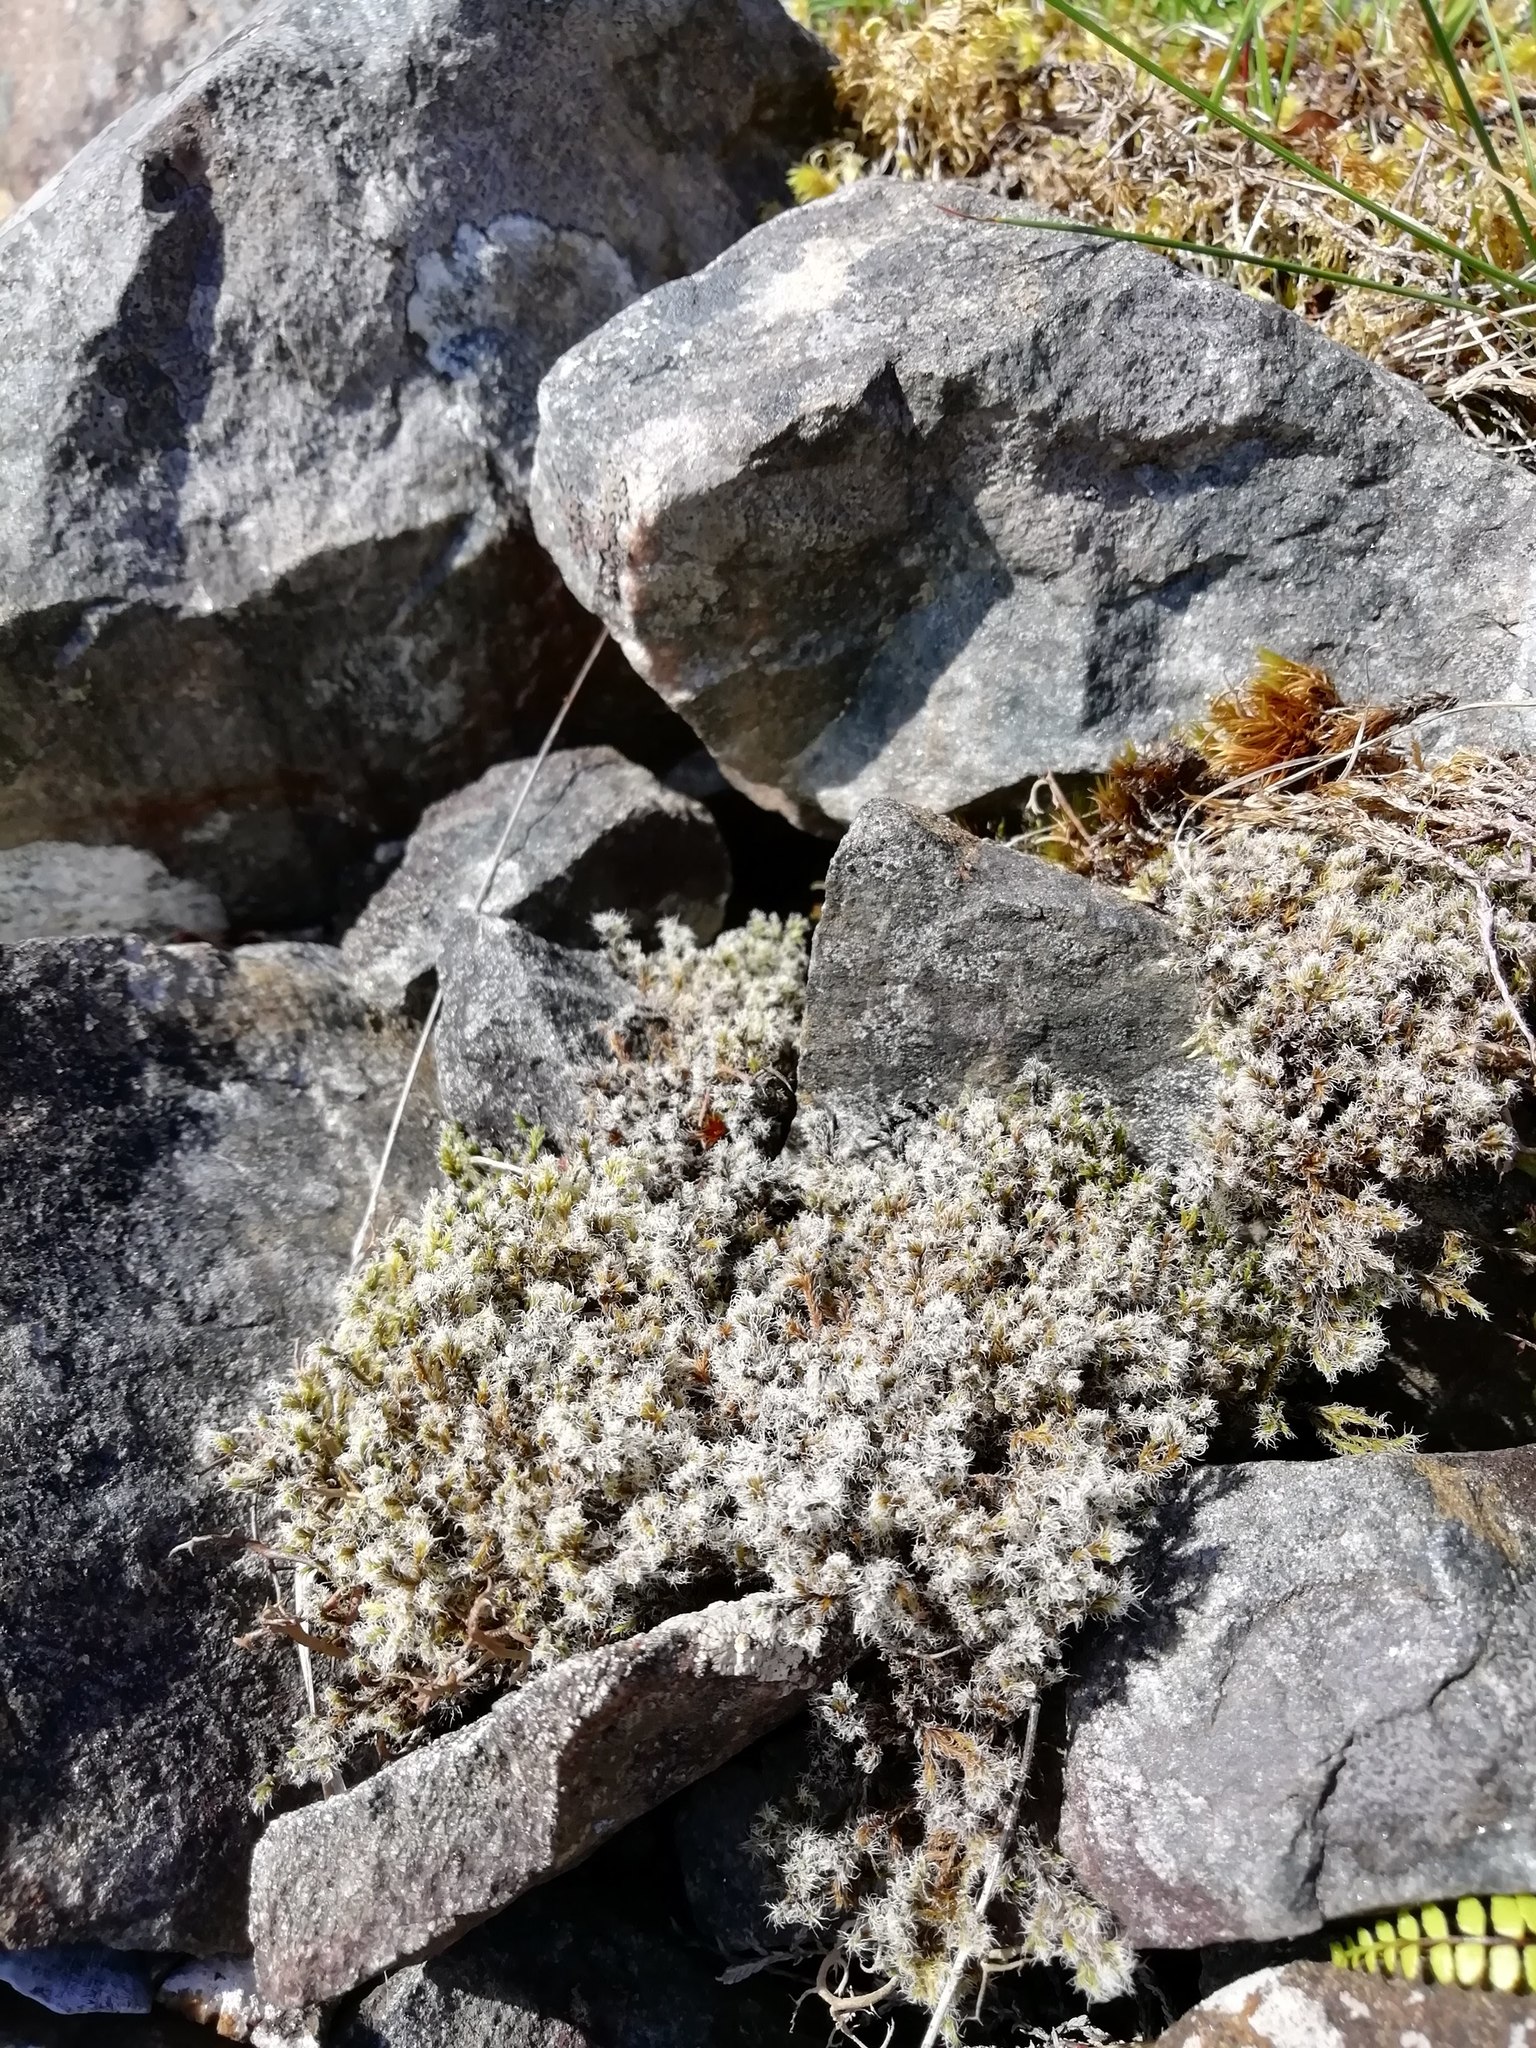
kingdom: Plantae
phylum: Bryophyta
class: Bryopsida
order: Grimmiales
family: Grimmiaceae
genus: Racomitrium
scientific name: Racomitrium lanuginosum
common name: Hoary rock moss
